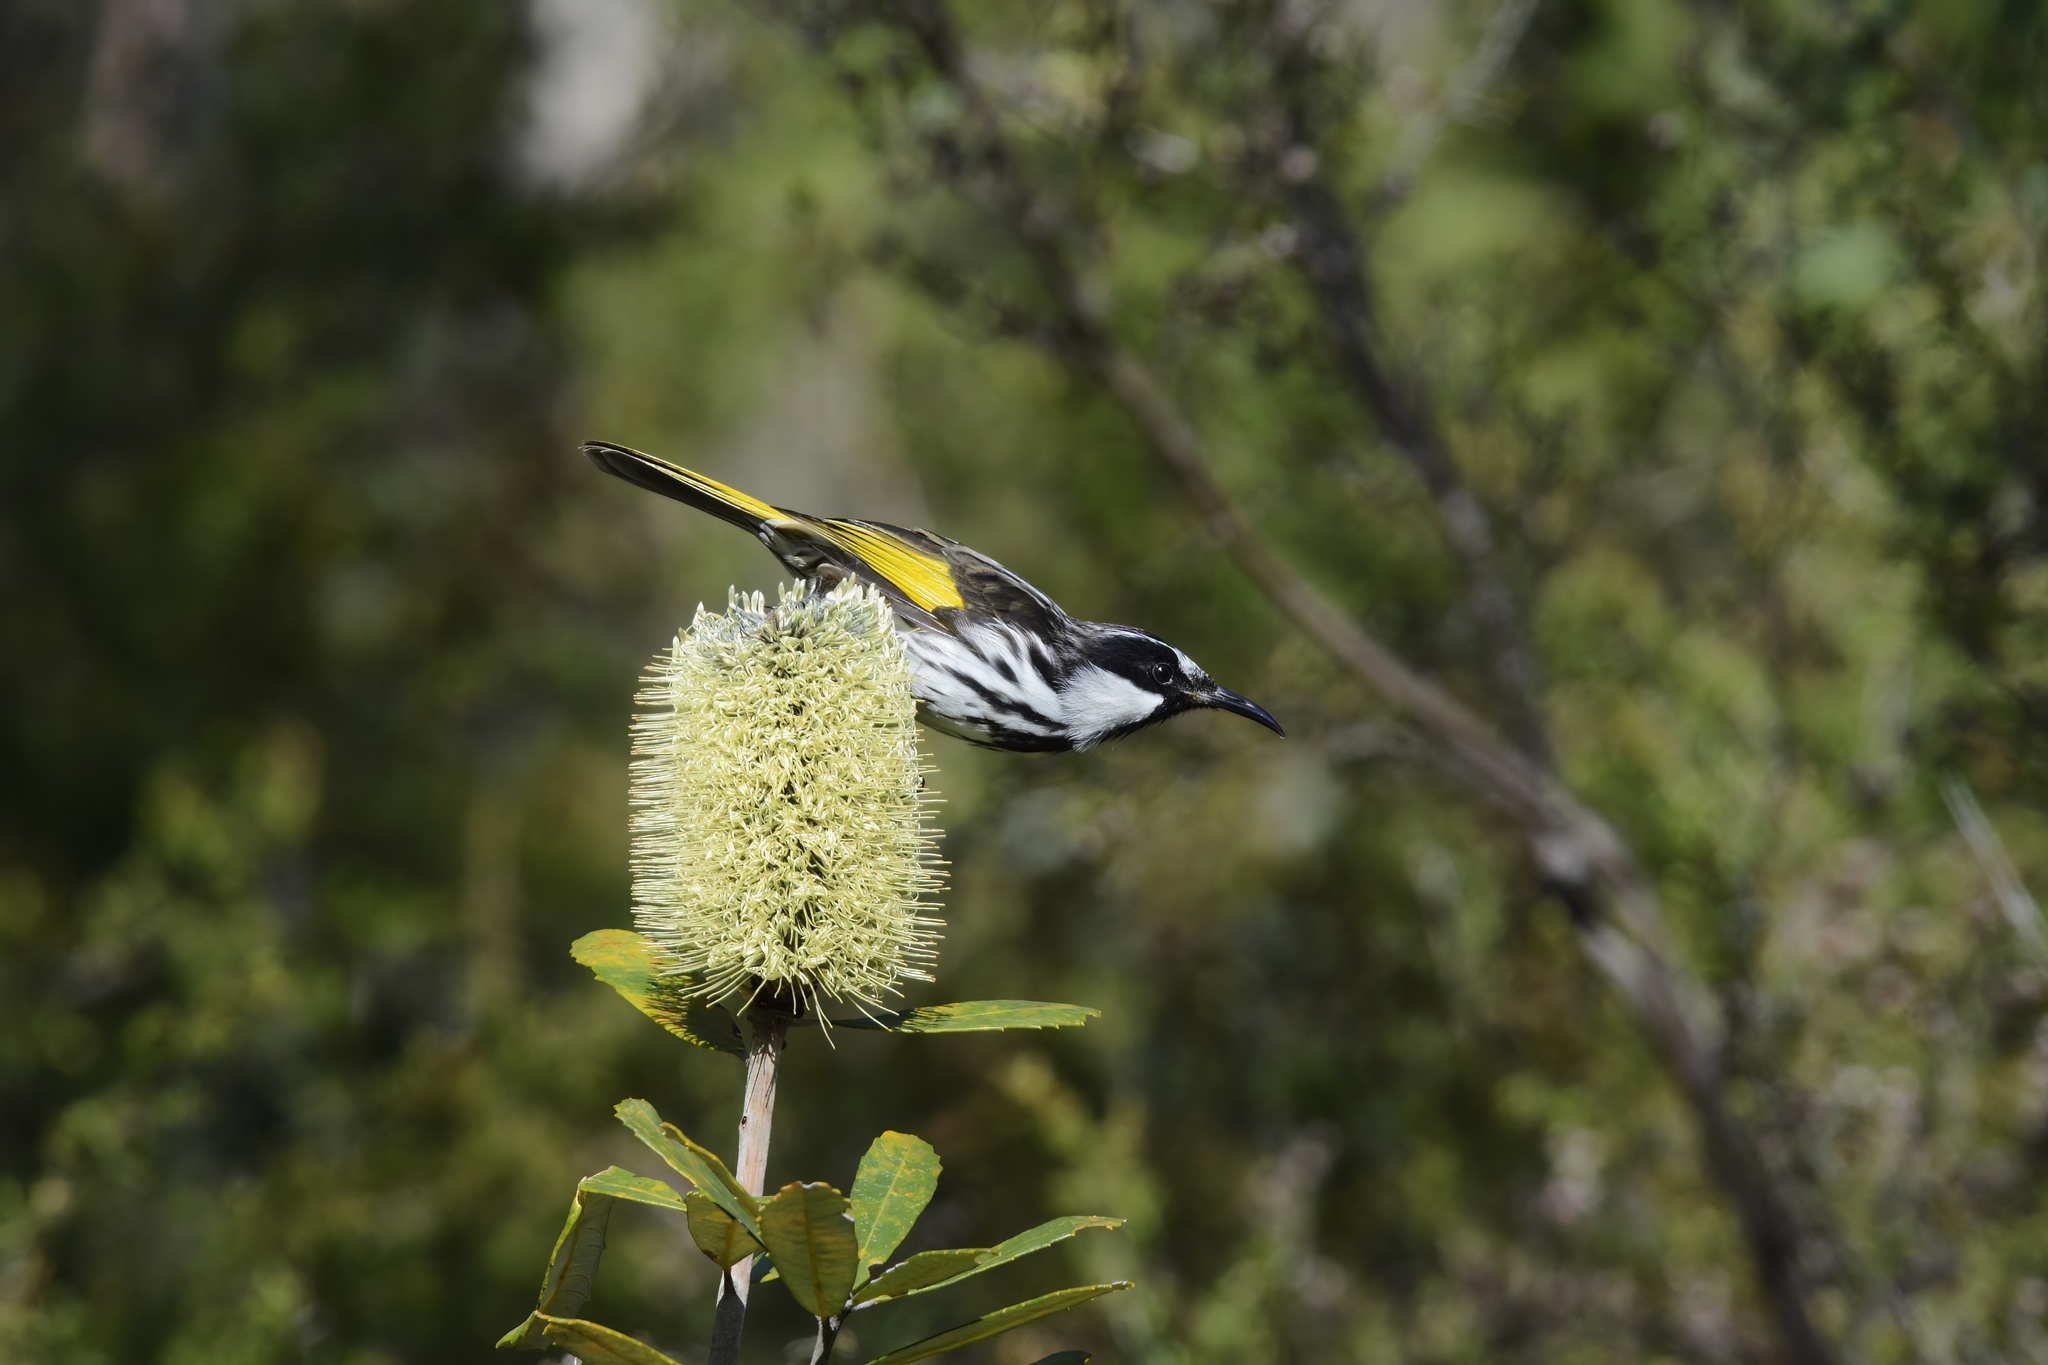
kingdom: Animalia
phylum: Chordata
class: Aves
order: Passeriformes
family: Meliphagidae
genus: Phylidonyris
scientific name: Phylidonyris niger
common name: White-cheeked honeyeater
